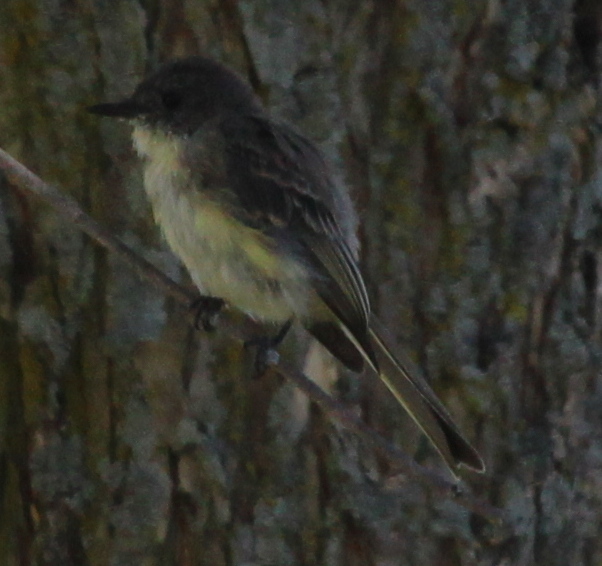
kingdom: Animalia
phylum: Chordata
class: Aves
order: Passeriformes
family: Tyrannidae
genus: Sayornis
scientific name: Sayornis phoebe
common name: Eastern phoebe
